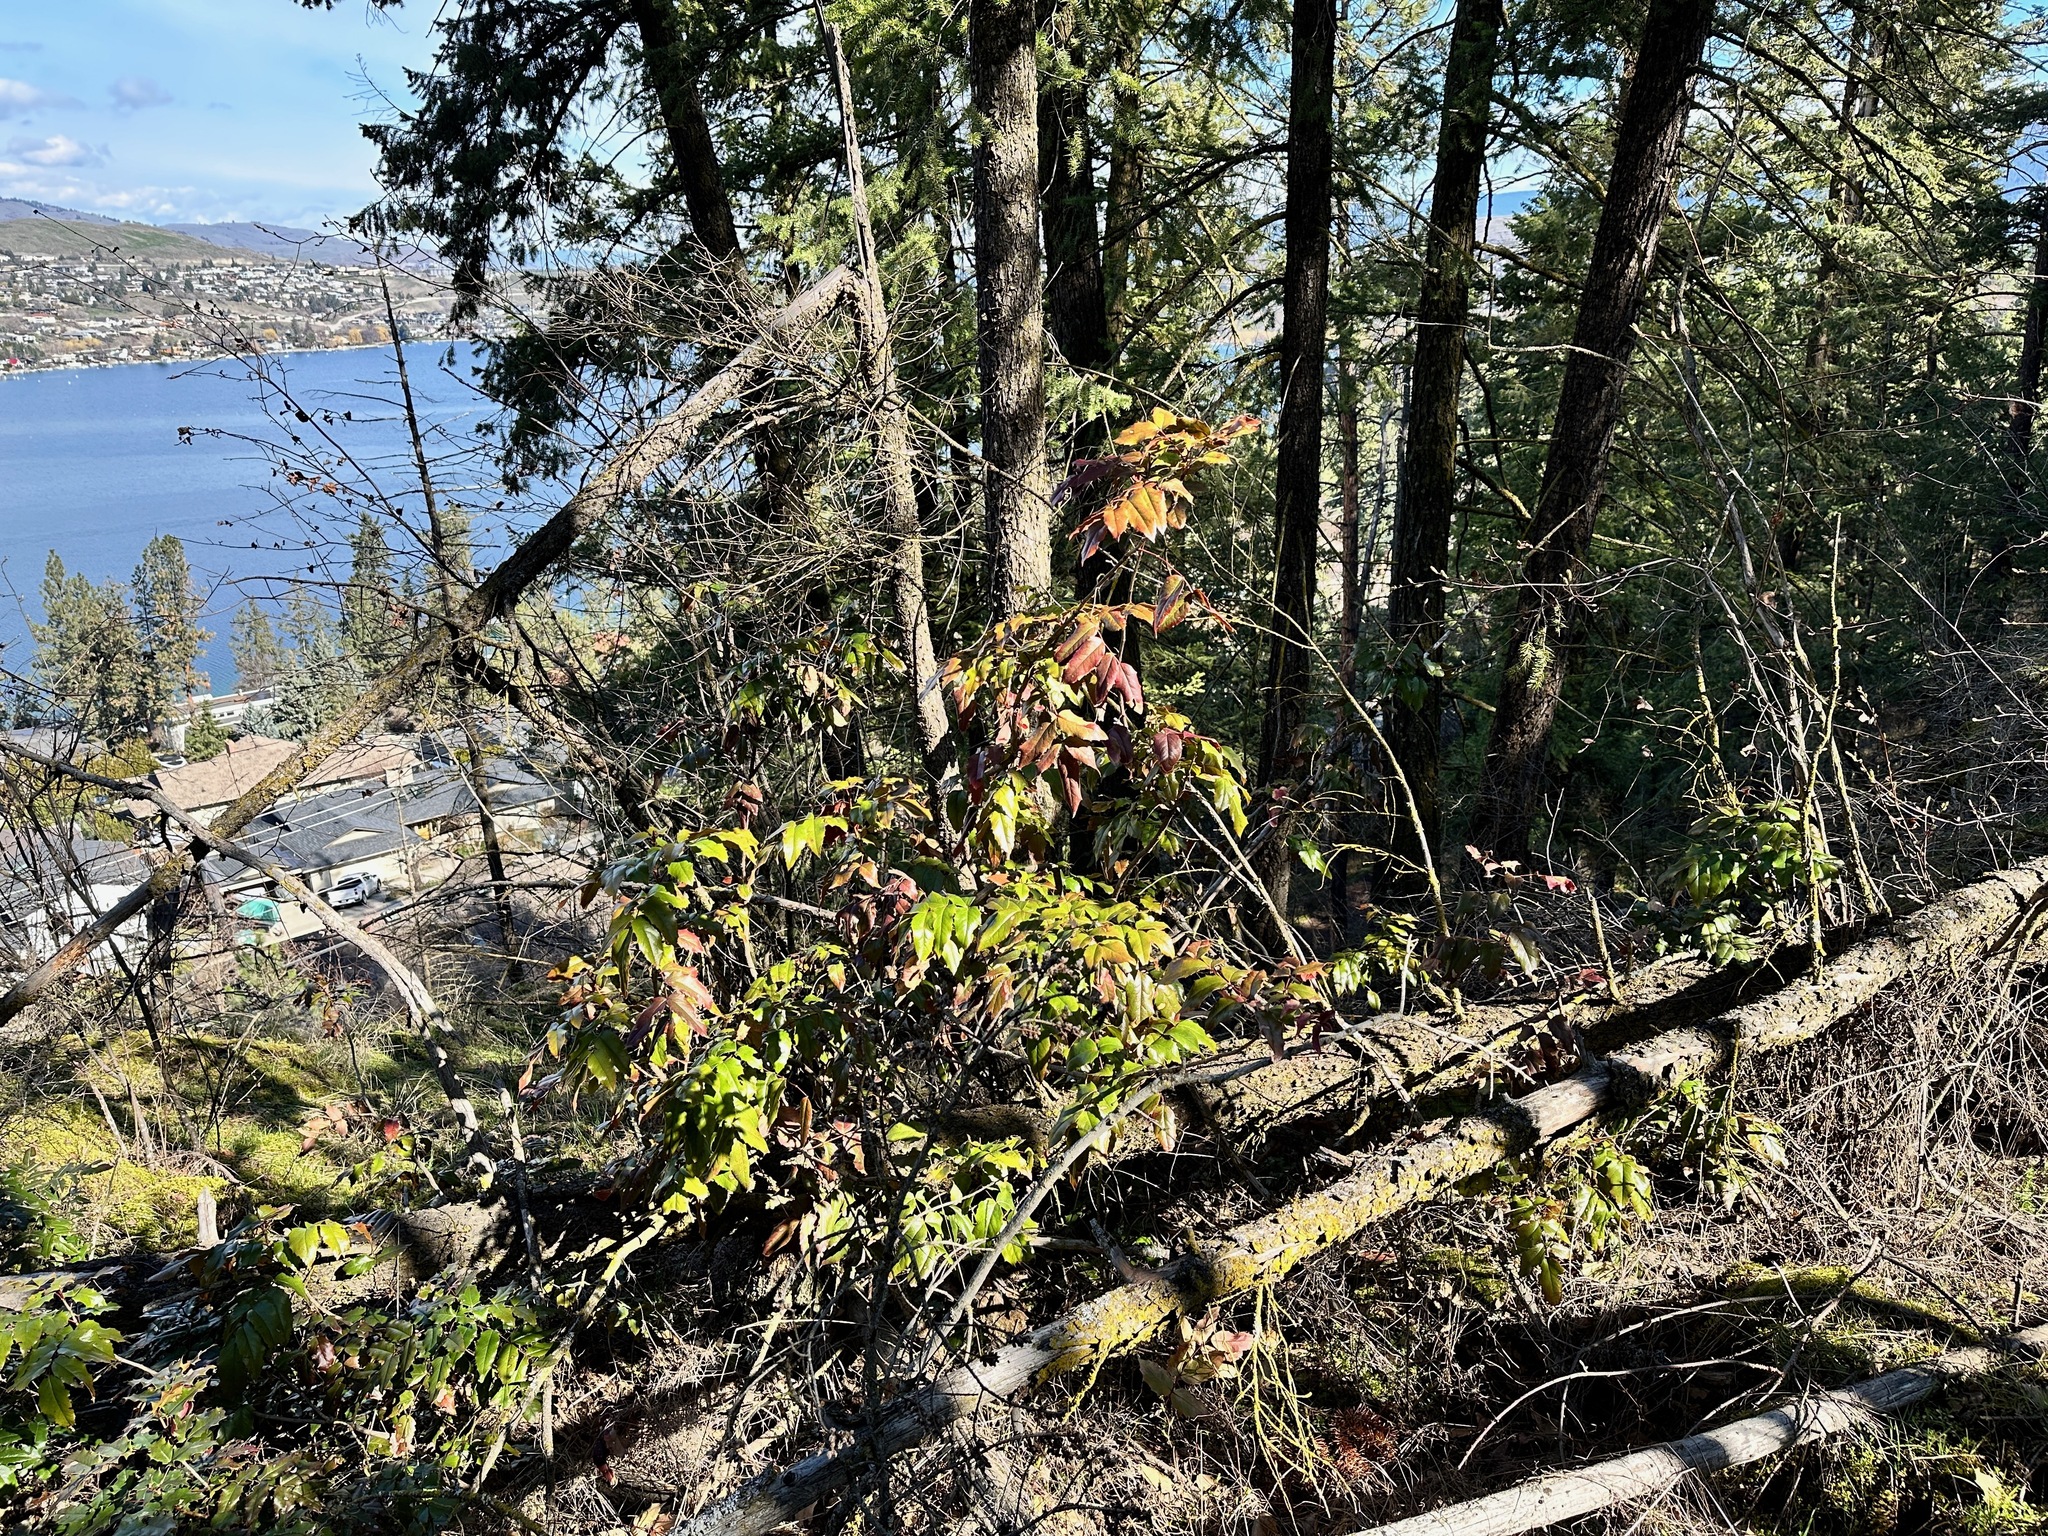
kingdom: Plantae
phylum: Tracheophyta
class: Magnoliopsida
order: Ranunculales
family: Berberidaceae
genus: Mahonia
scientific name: Mahonia aquifolium
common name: Oregon-grape
